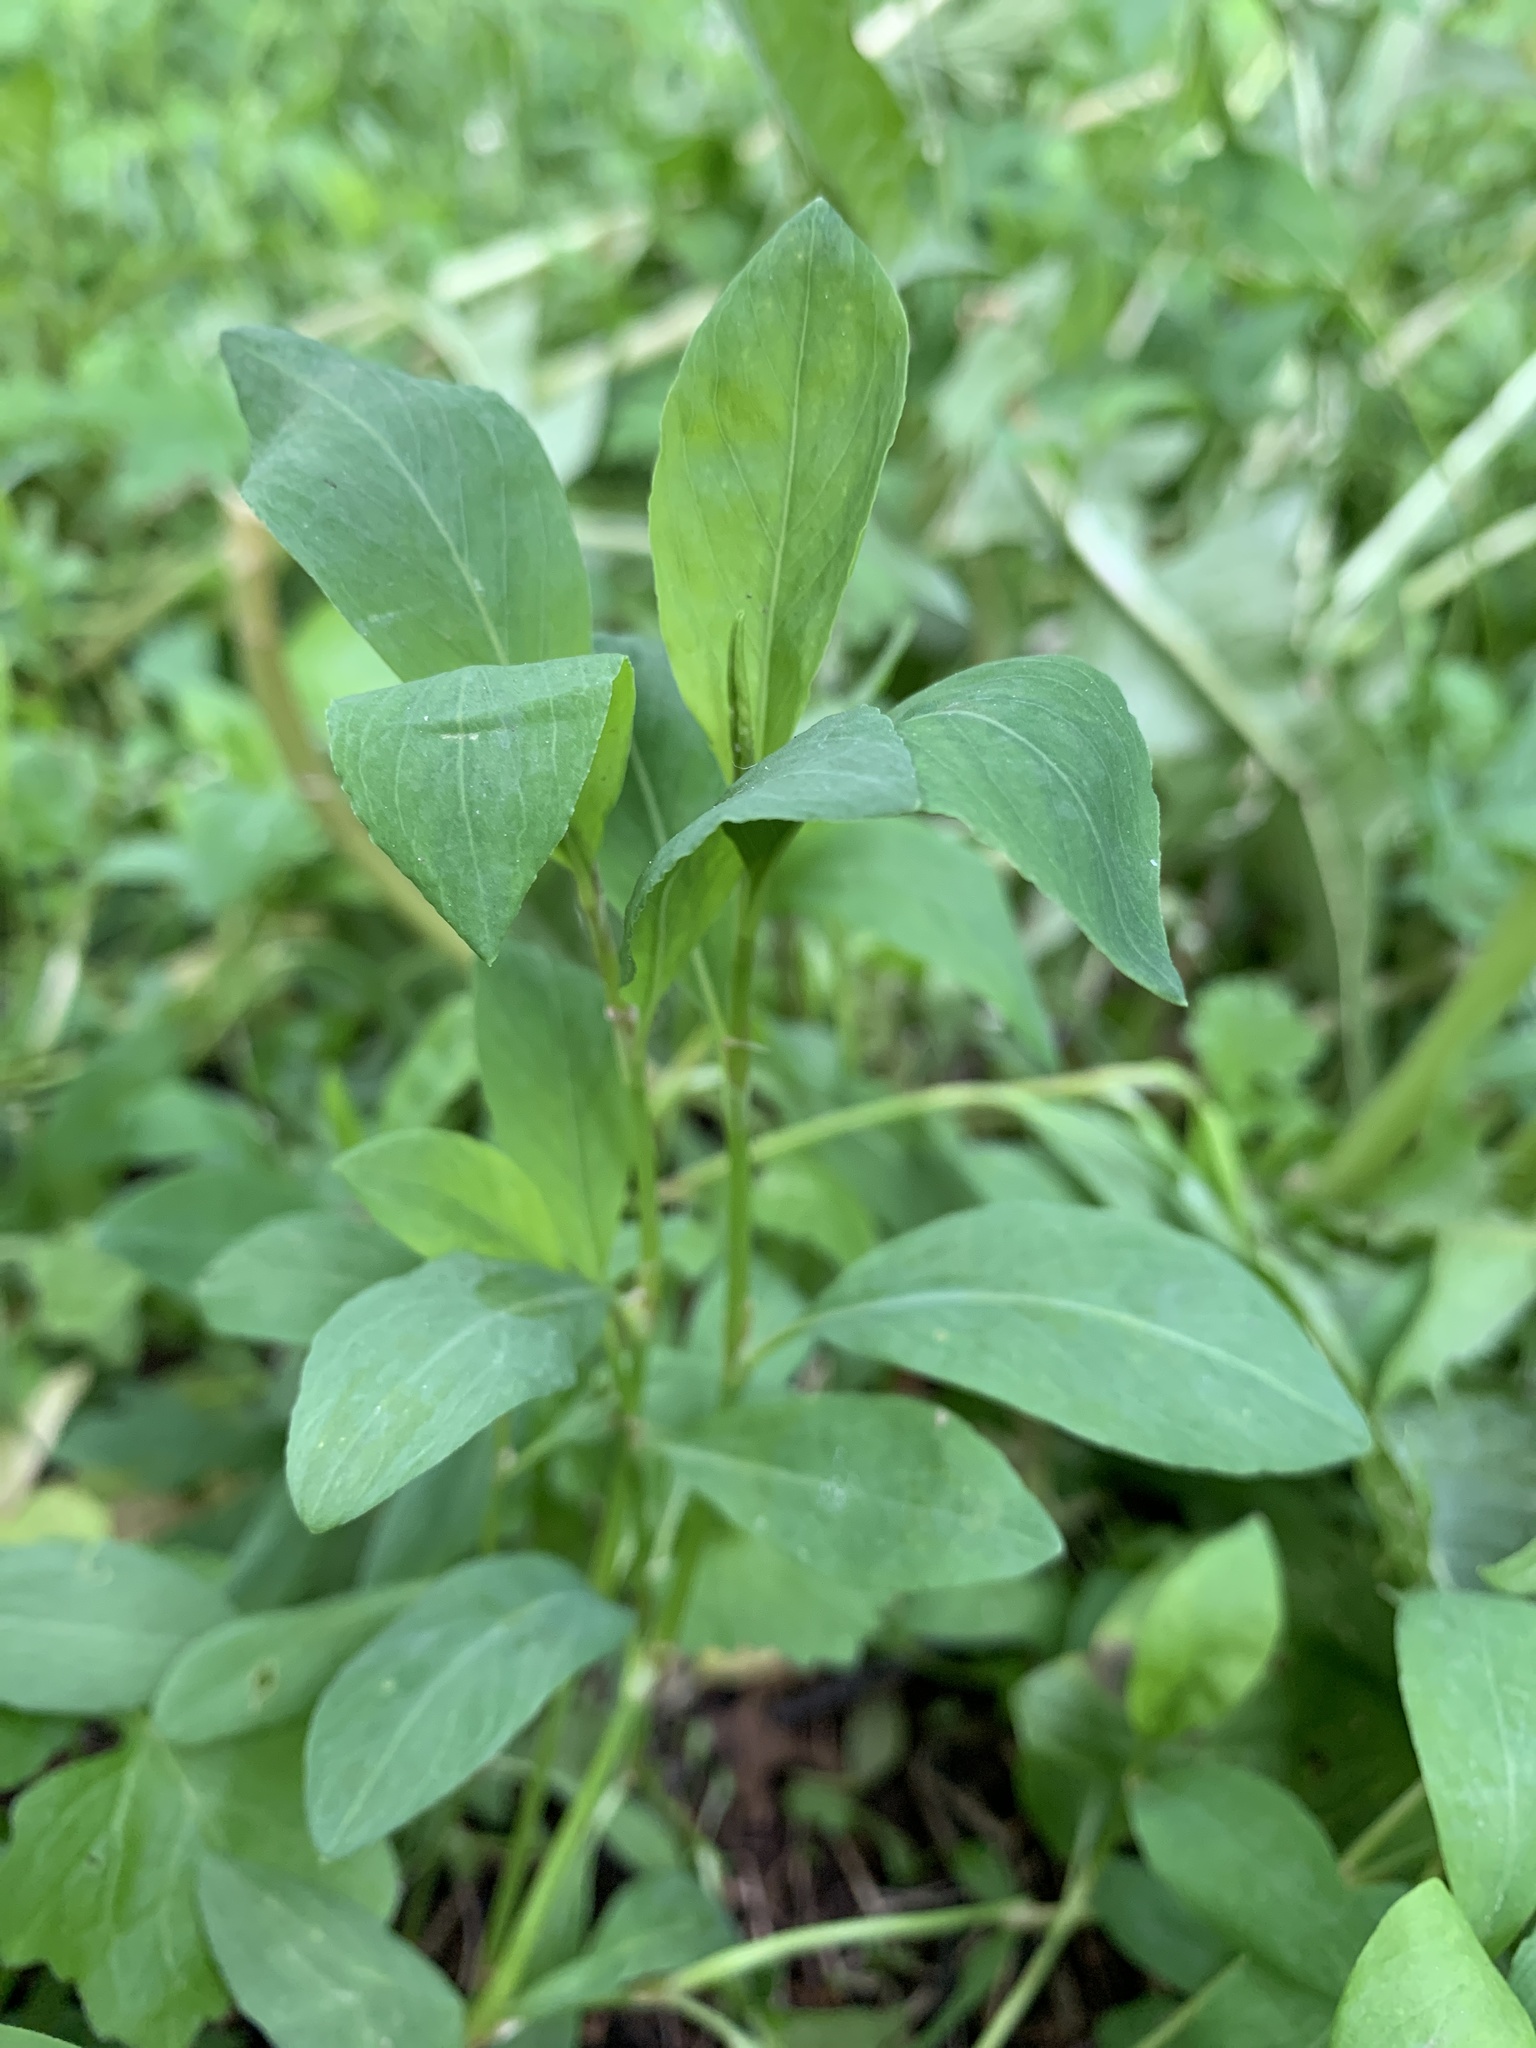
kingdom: Plantae
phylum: Tracheophyta
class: Magnoliopsida
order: Caryophyllales
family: Polygonaceae
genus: Polygonum
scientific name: Polygonum
